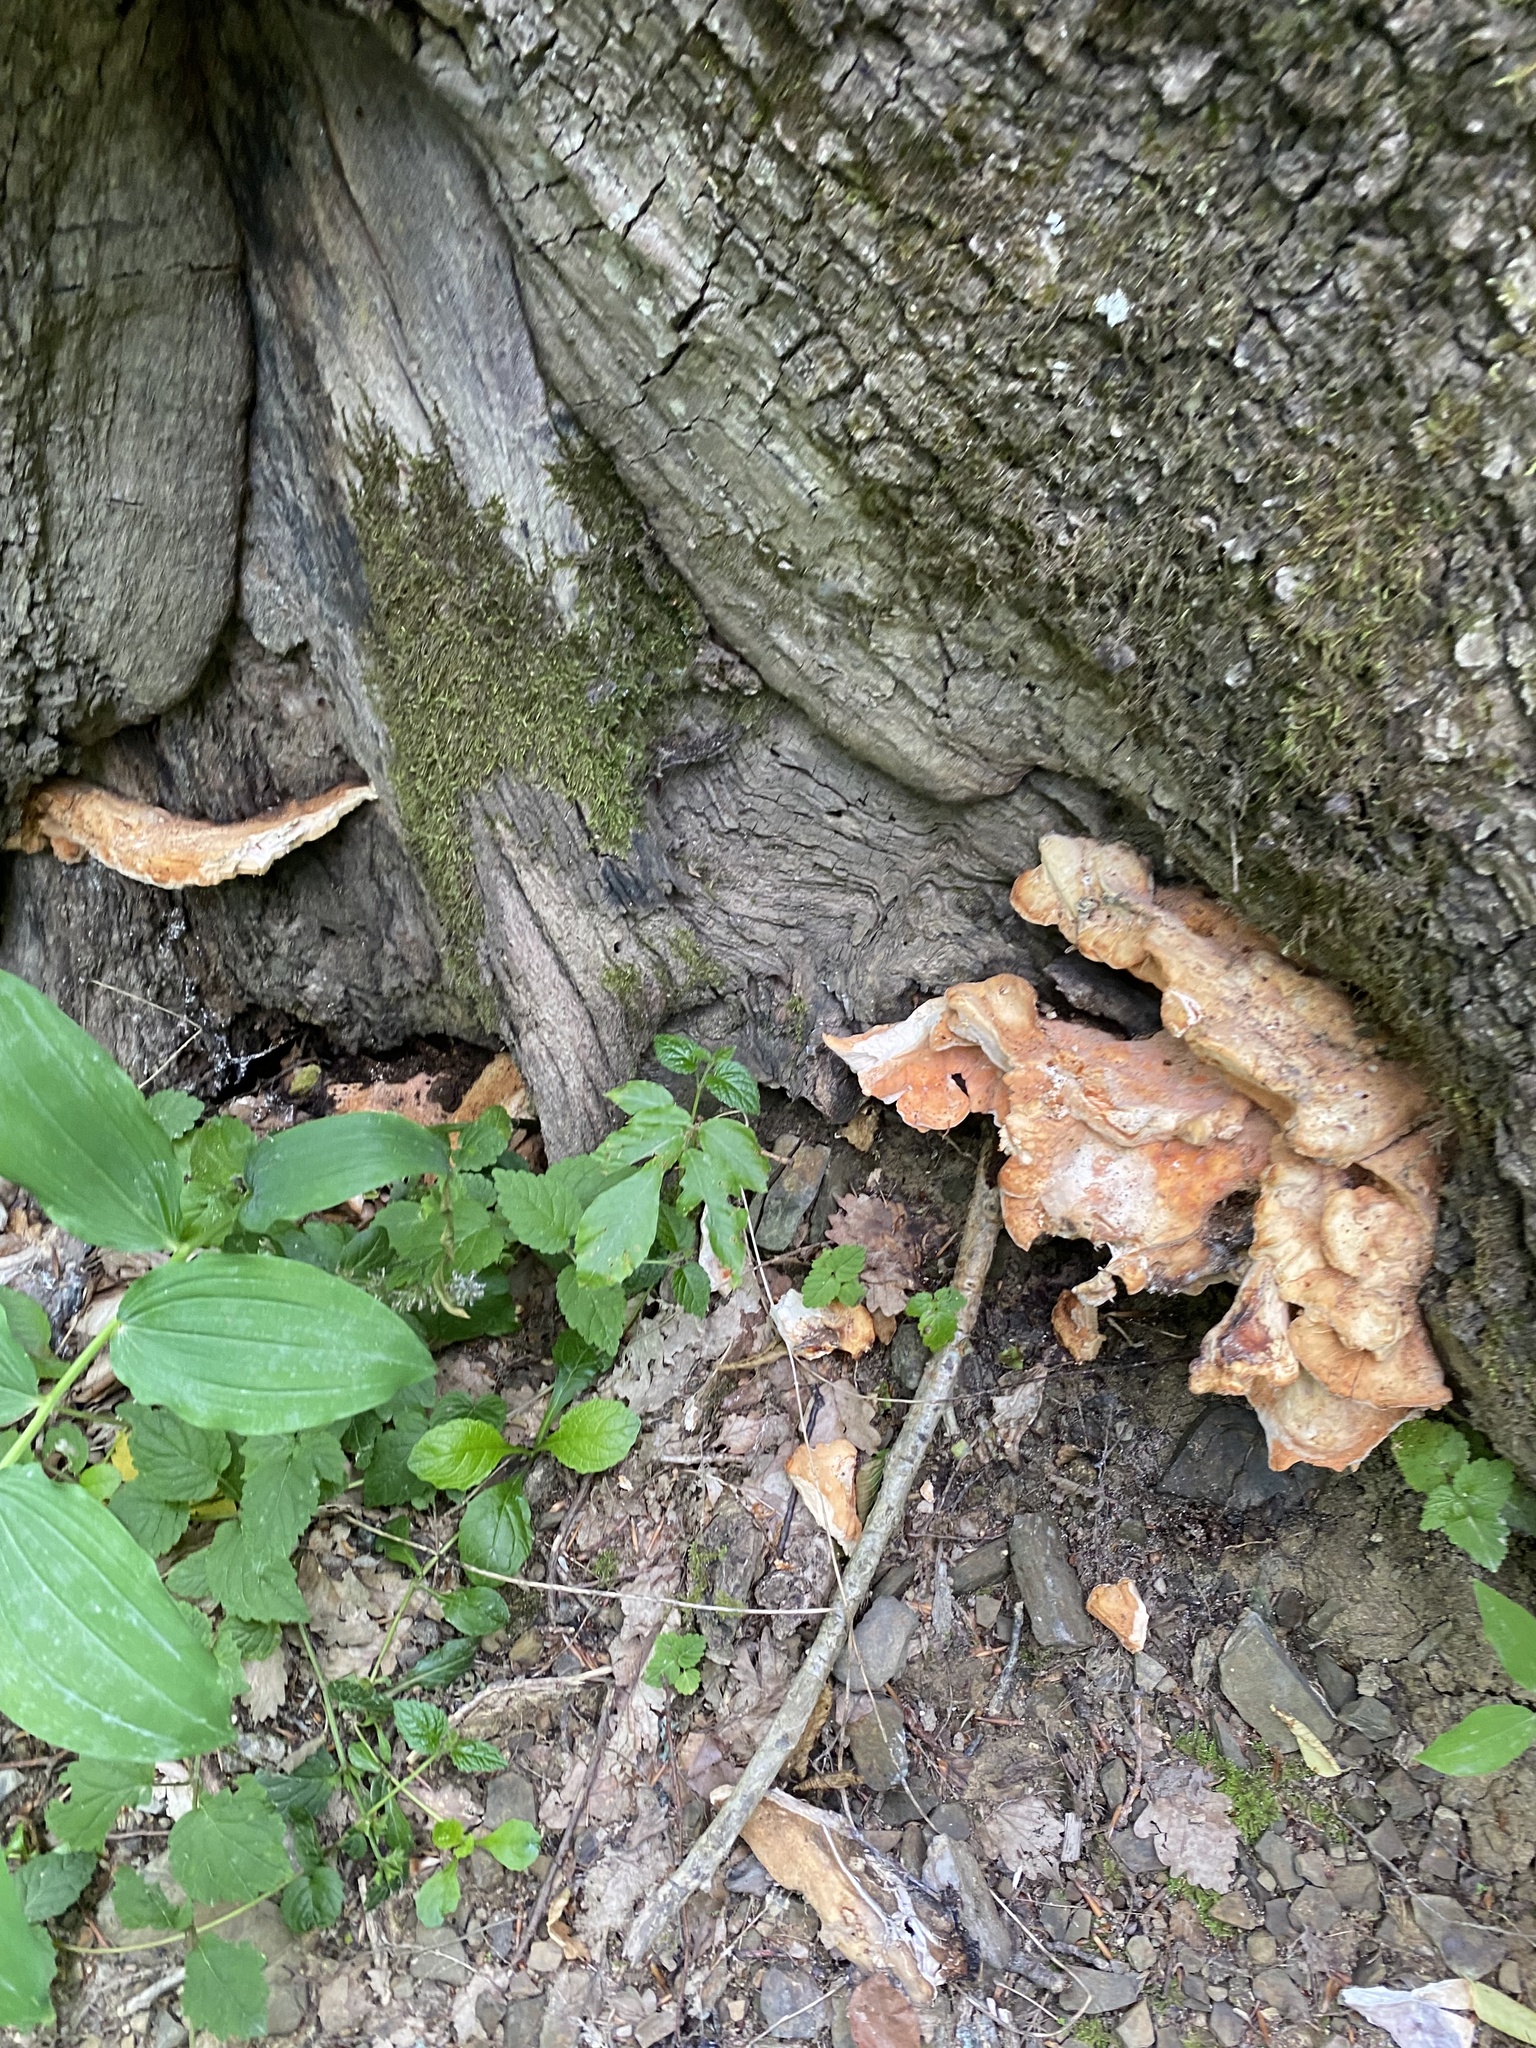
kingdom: Fungi
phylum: Basidiomycota
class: Agaricomycetes
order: Polyporales
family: Laetiporaceae
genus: Laetiporus
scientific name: Laetiporus sulphureus
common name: Chicken of the woods
